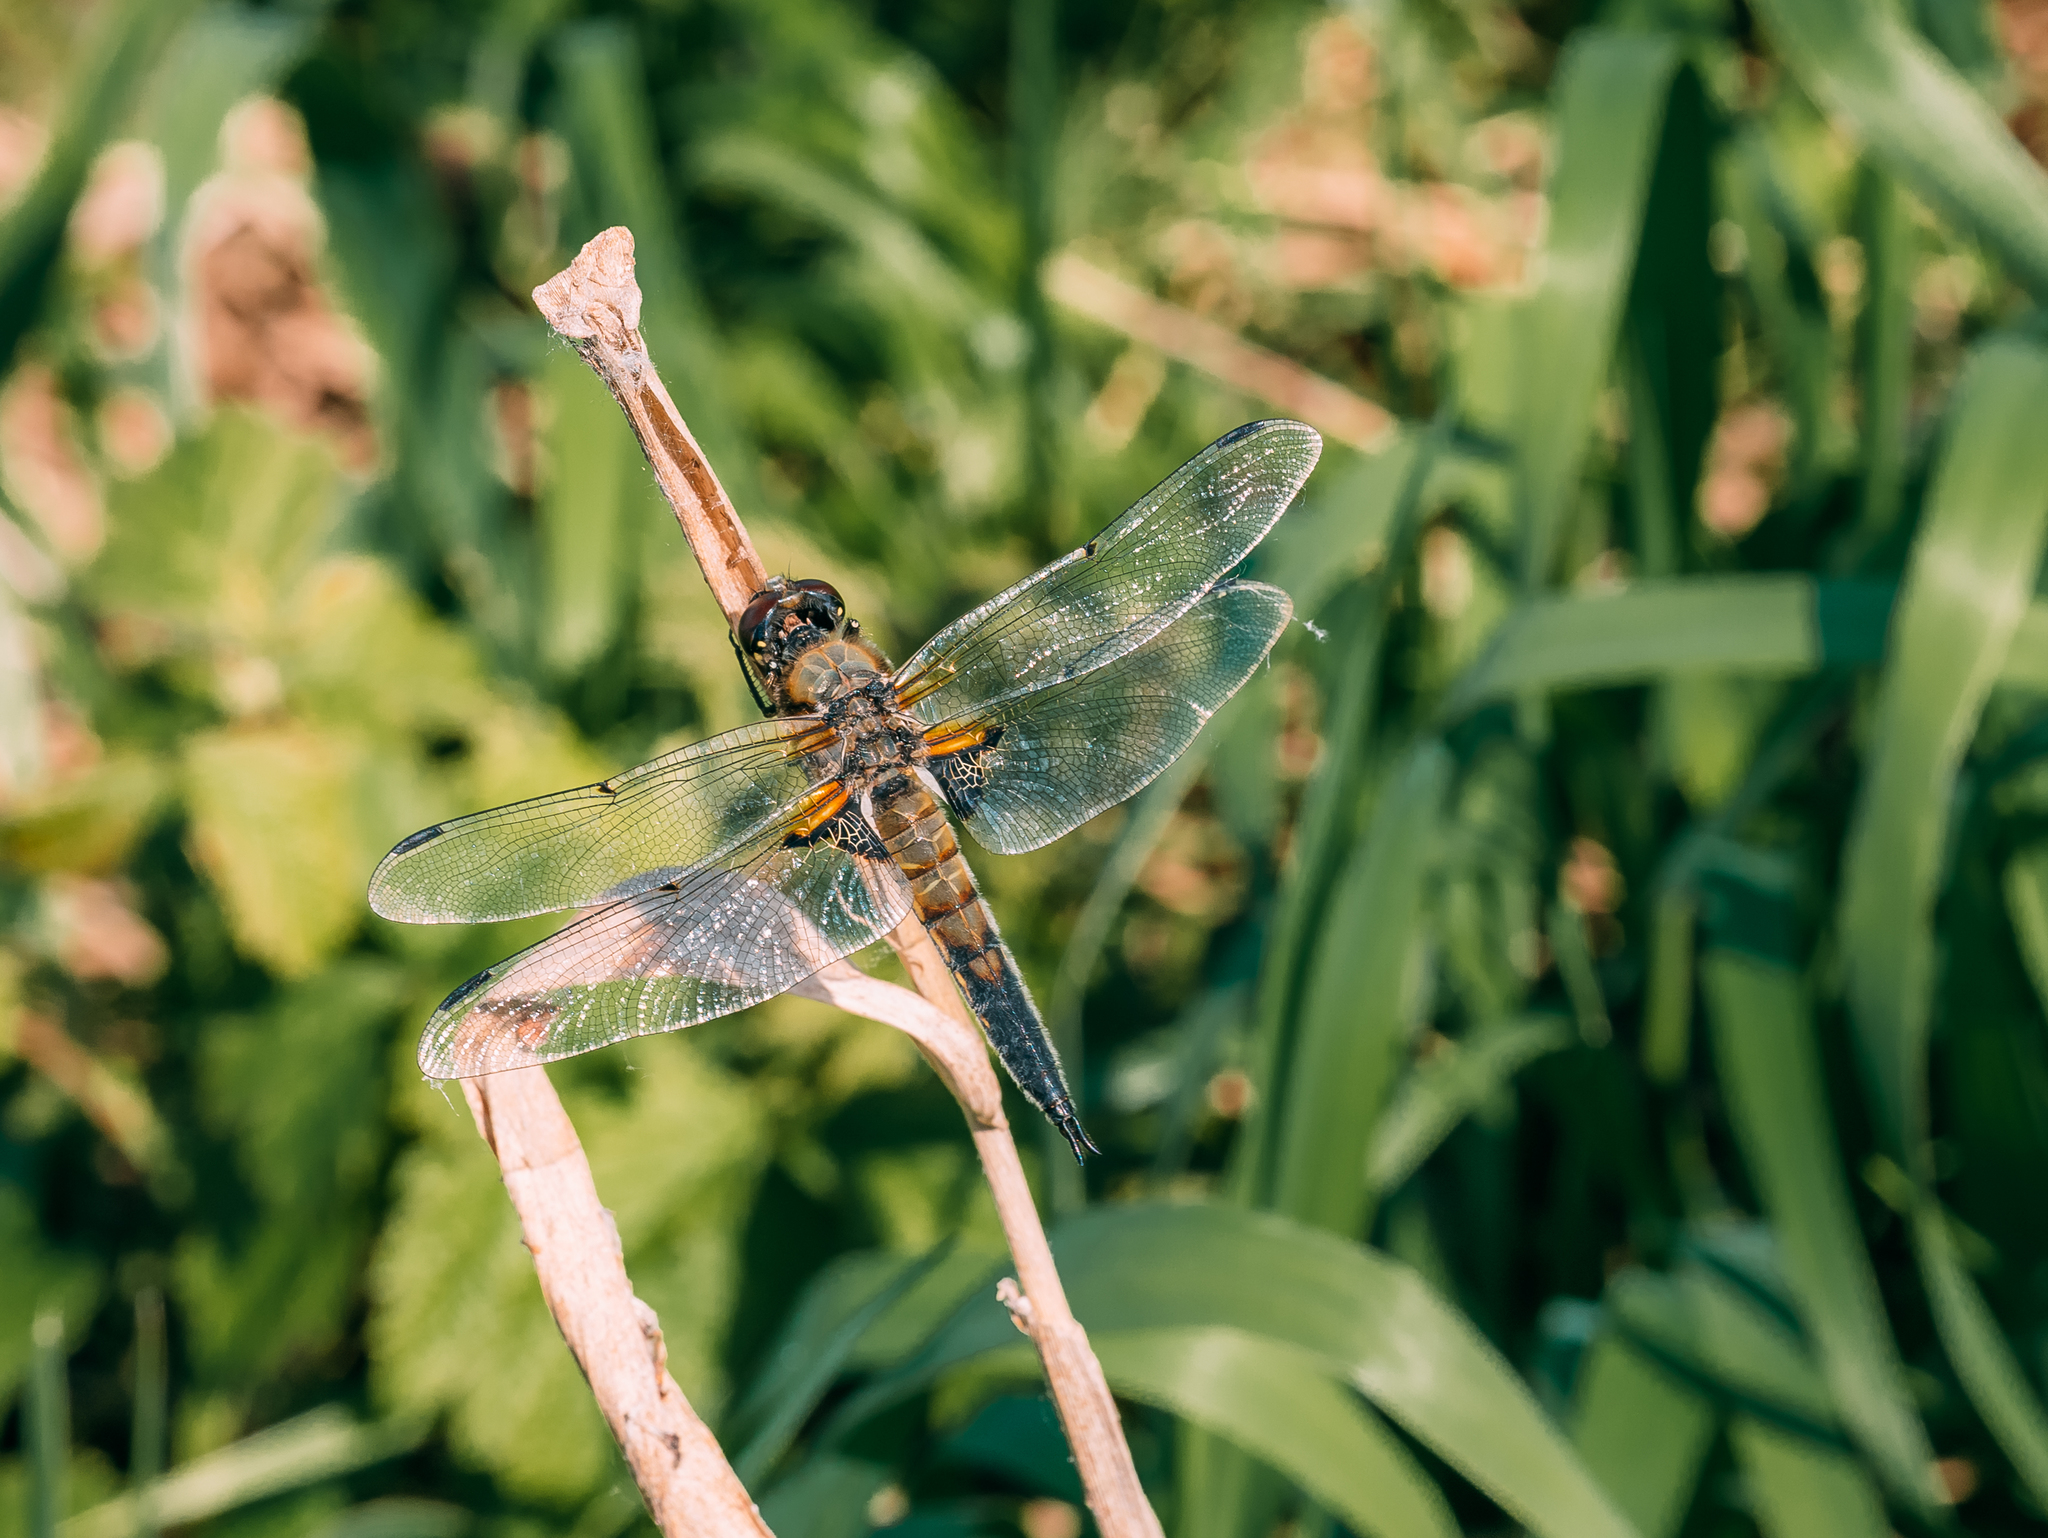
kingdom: Animalia
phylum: Arthropoda
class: Insecta
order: Odonata
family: Libellulidae
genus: Libellula
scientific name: Libellula quadrimaculata
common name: Four-spotted chaser
